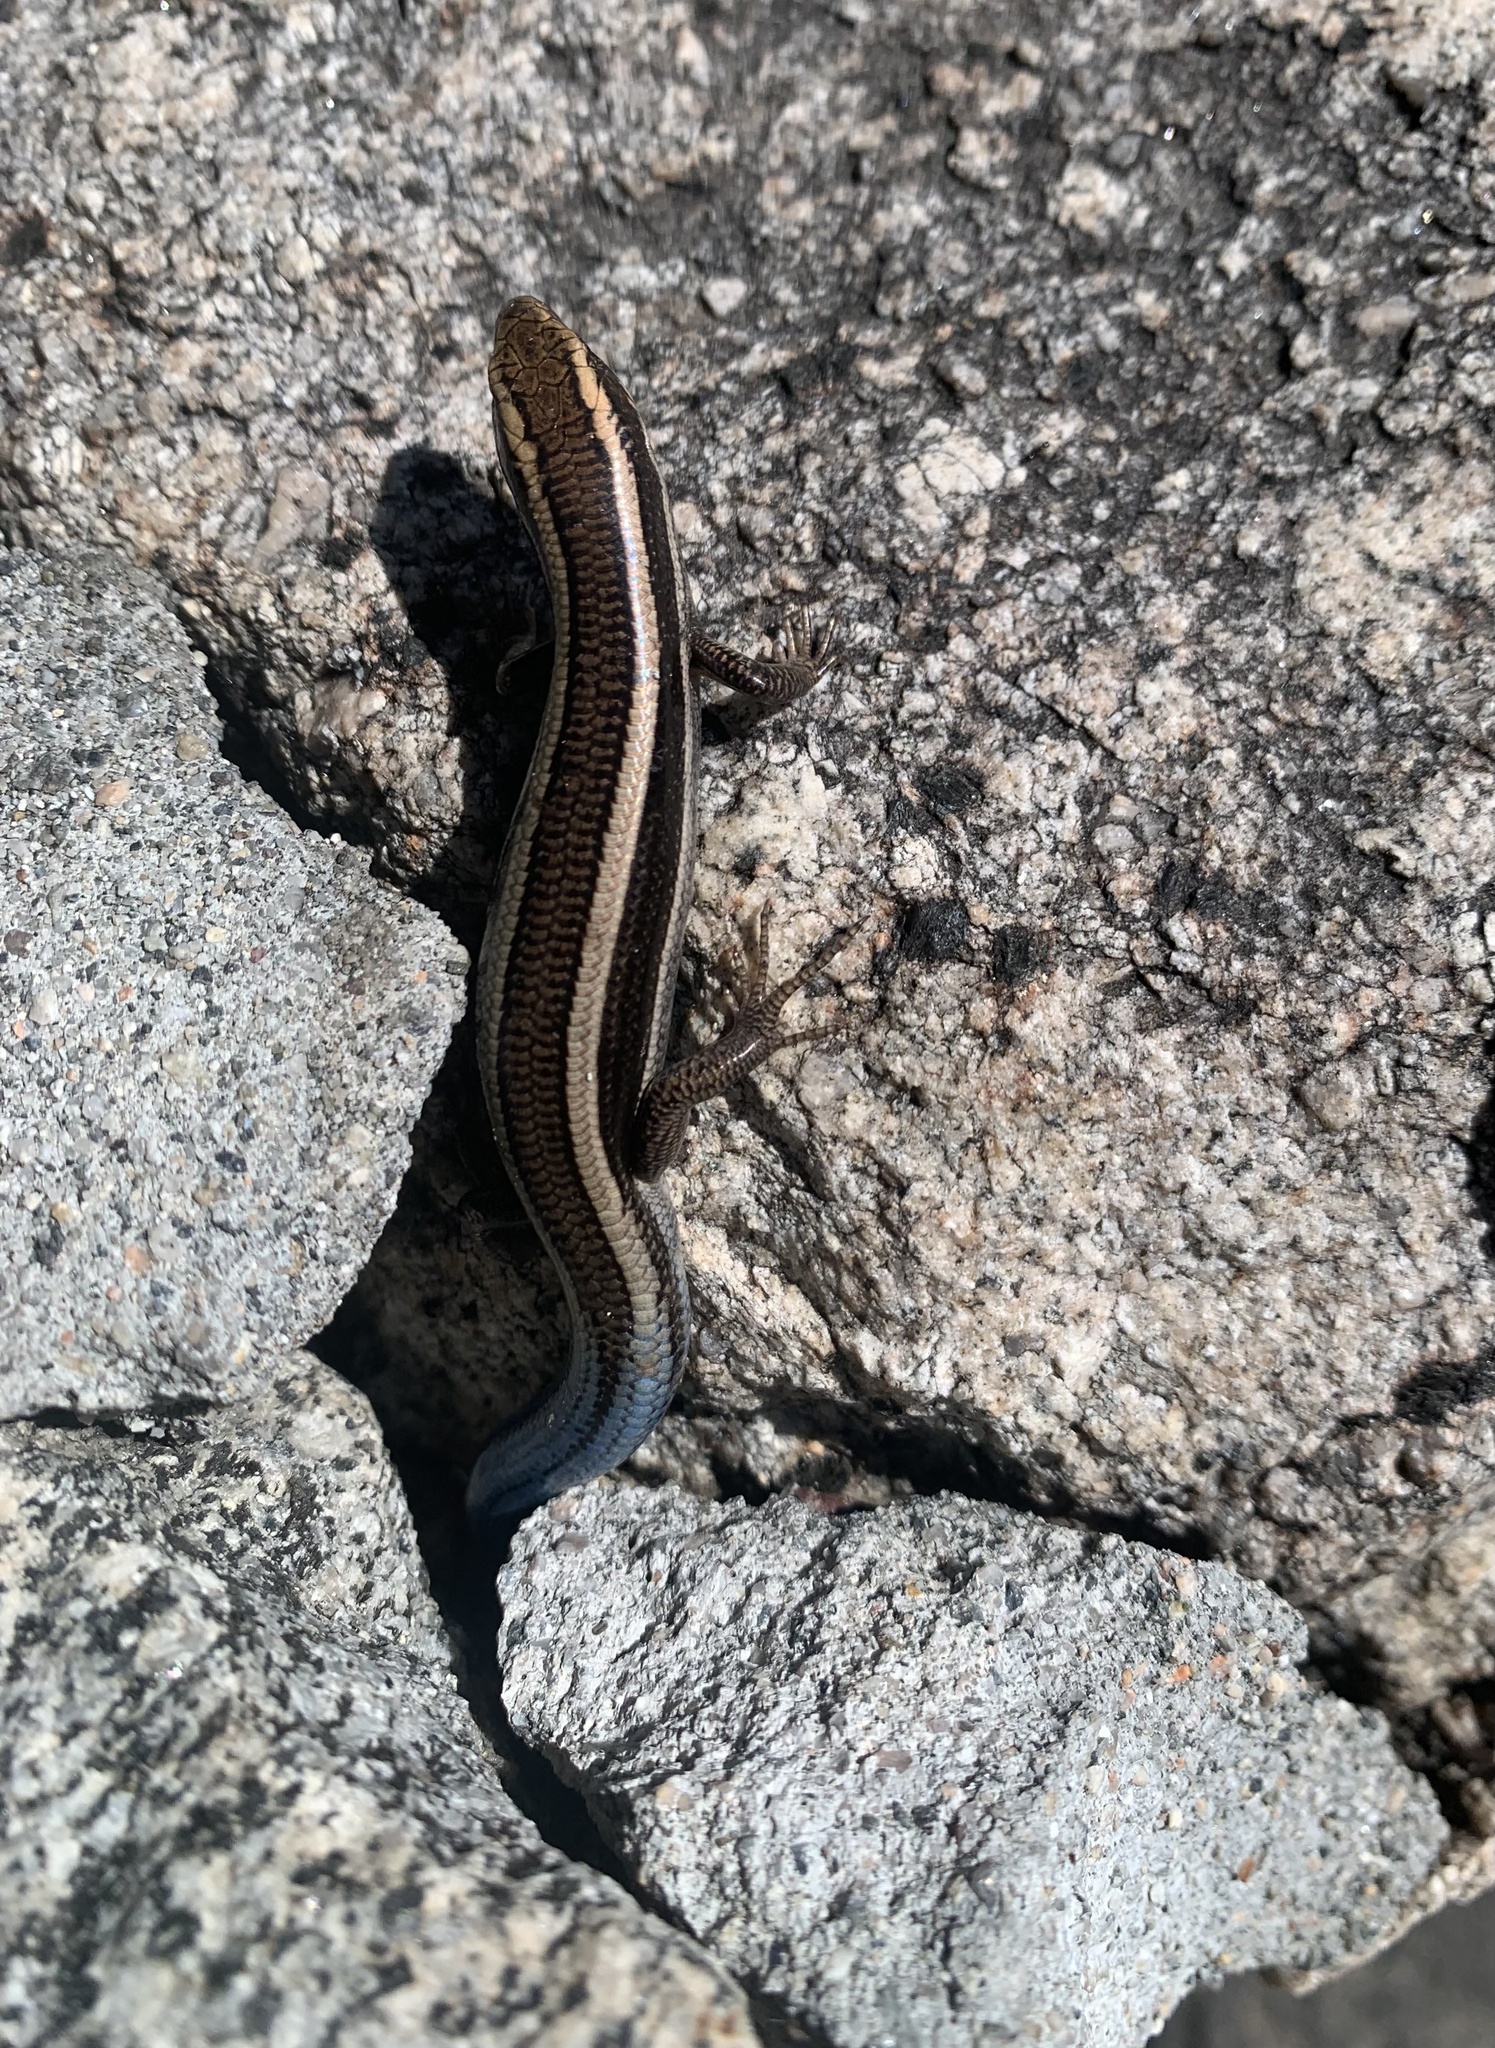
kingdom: Animalia
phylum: Chordata
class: Squamata
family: Scincidae
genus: Plestiodon
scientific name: Plestiodon skiltonianus
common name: Coronado island skink [interparietalis]
